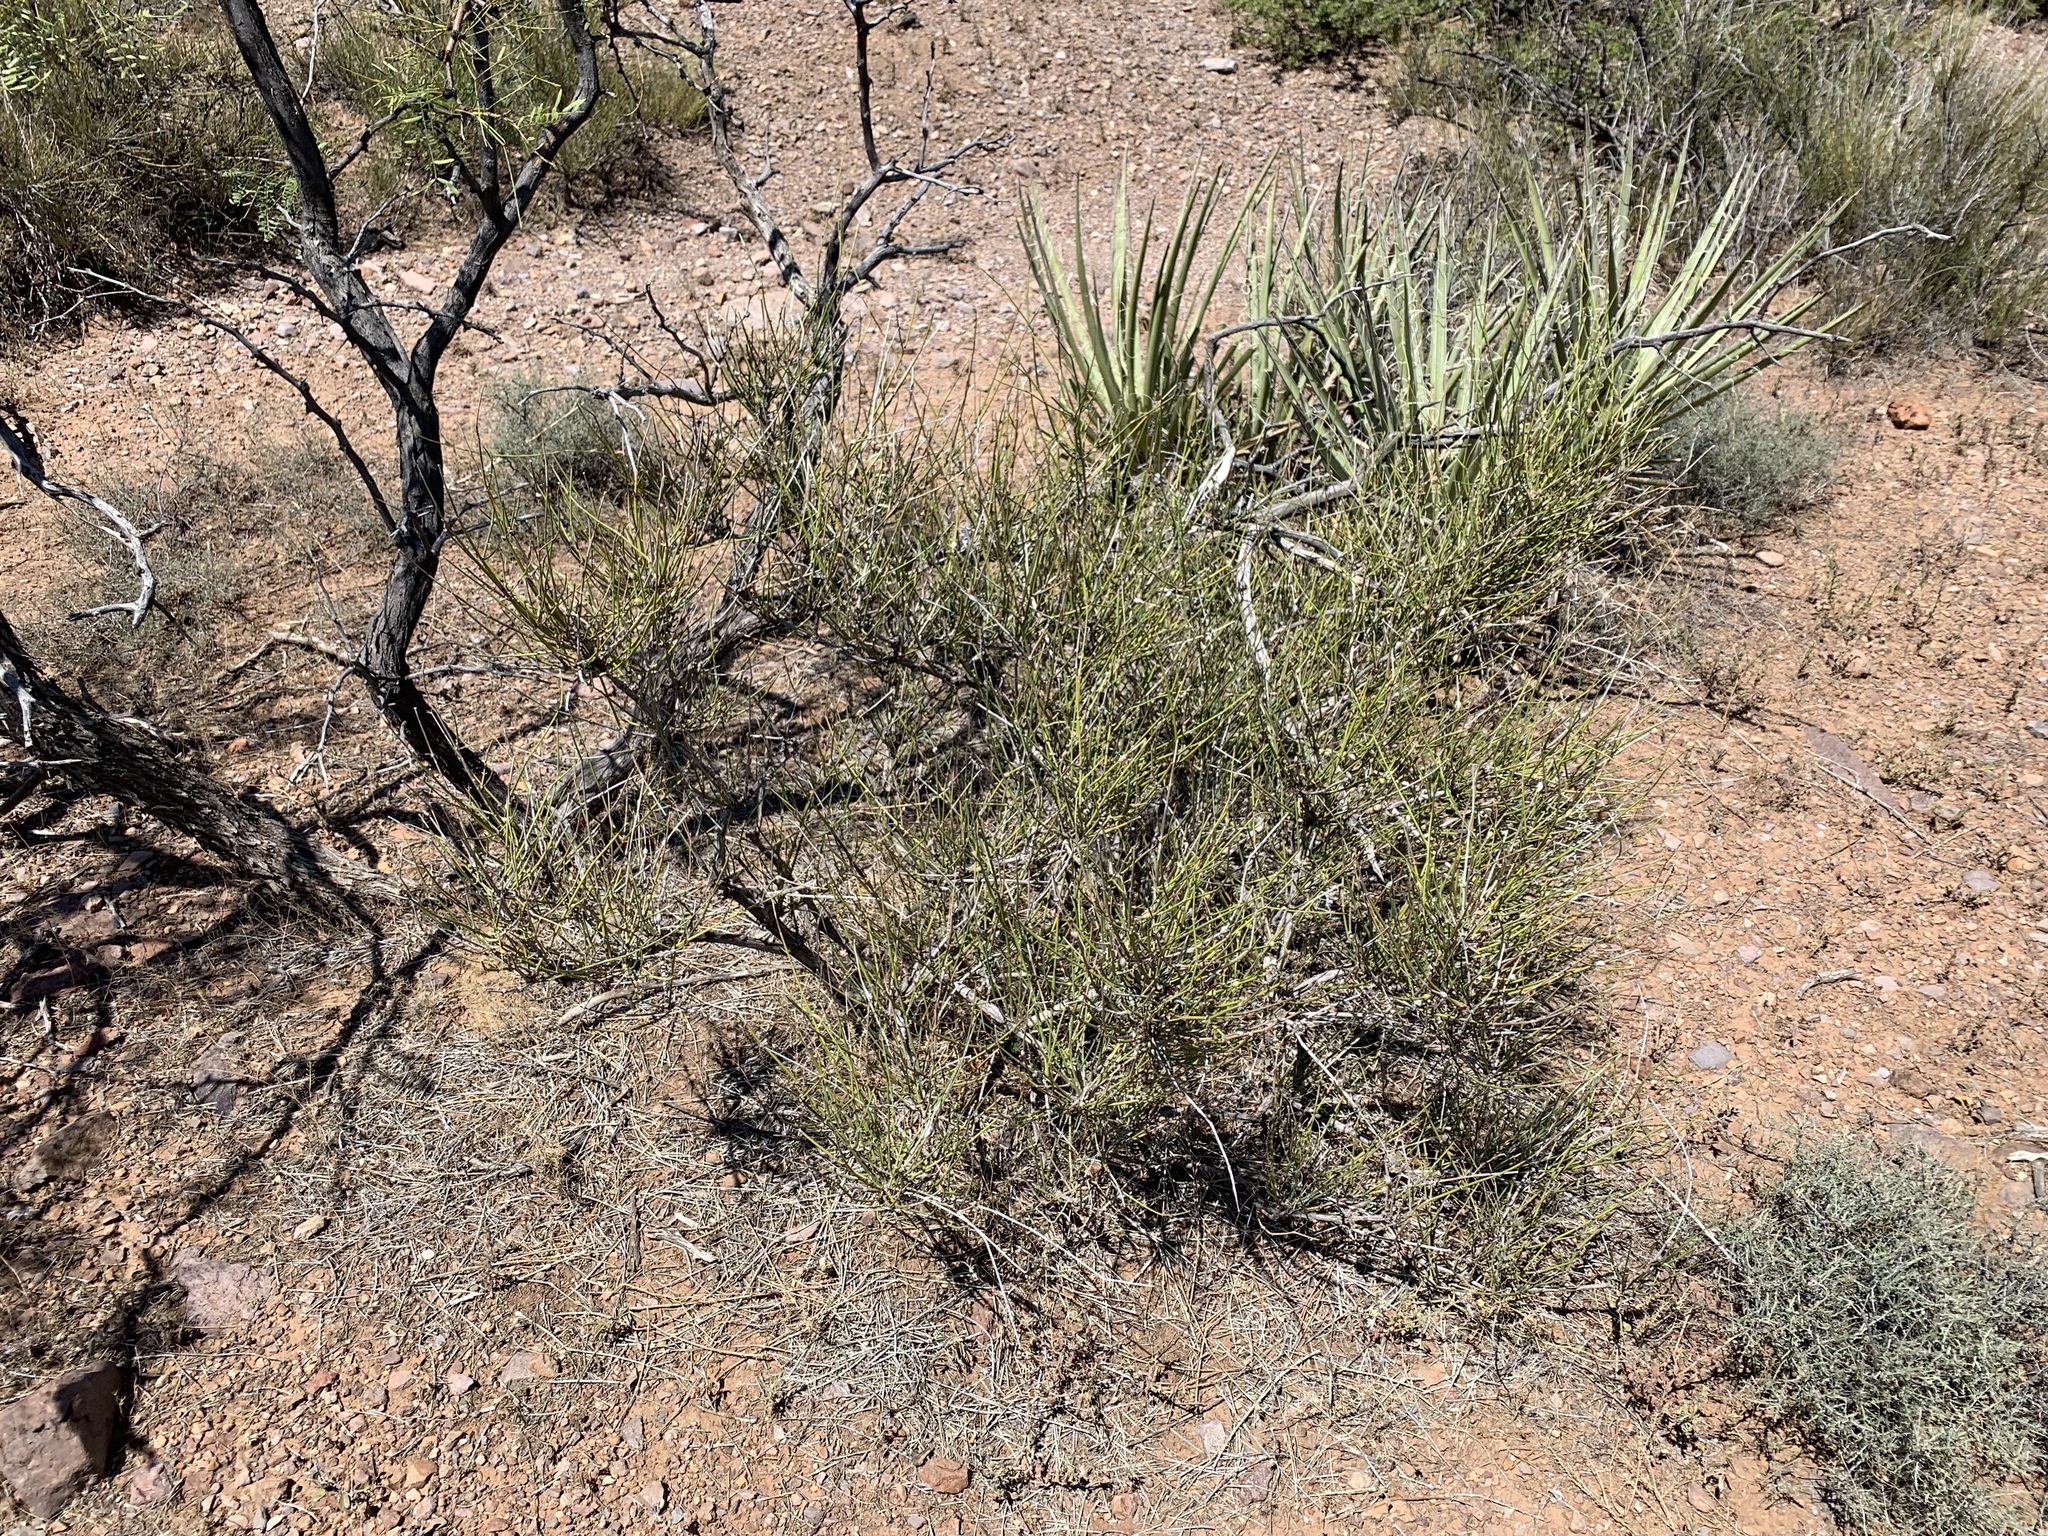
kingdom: Plantae
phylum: Tracheophyta
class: Gnetopsida
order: Ephedrales
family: Ephedraceae
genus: Ephedra
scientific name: Ephedra trifurca
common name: Mexican-tea
